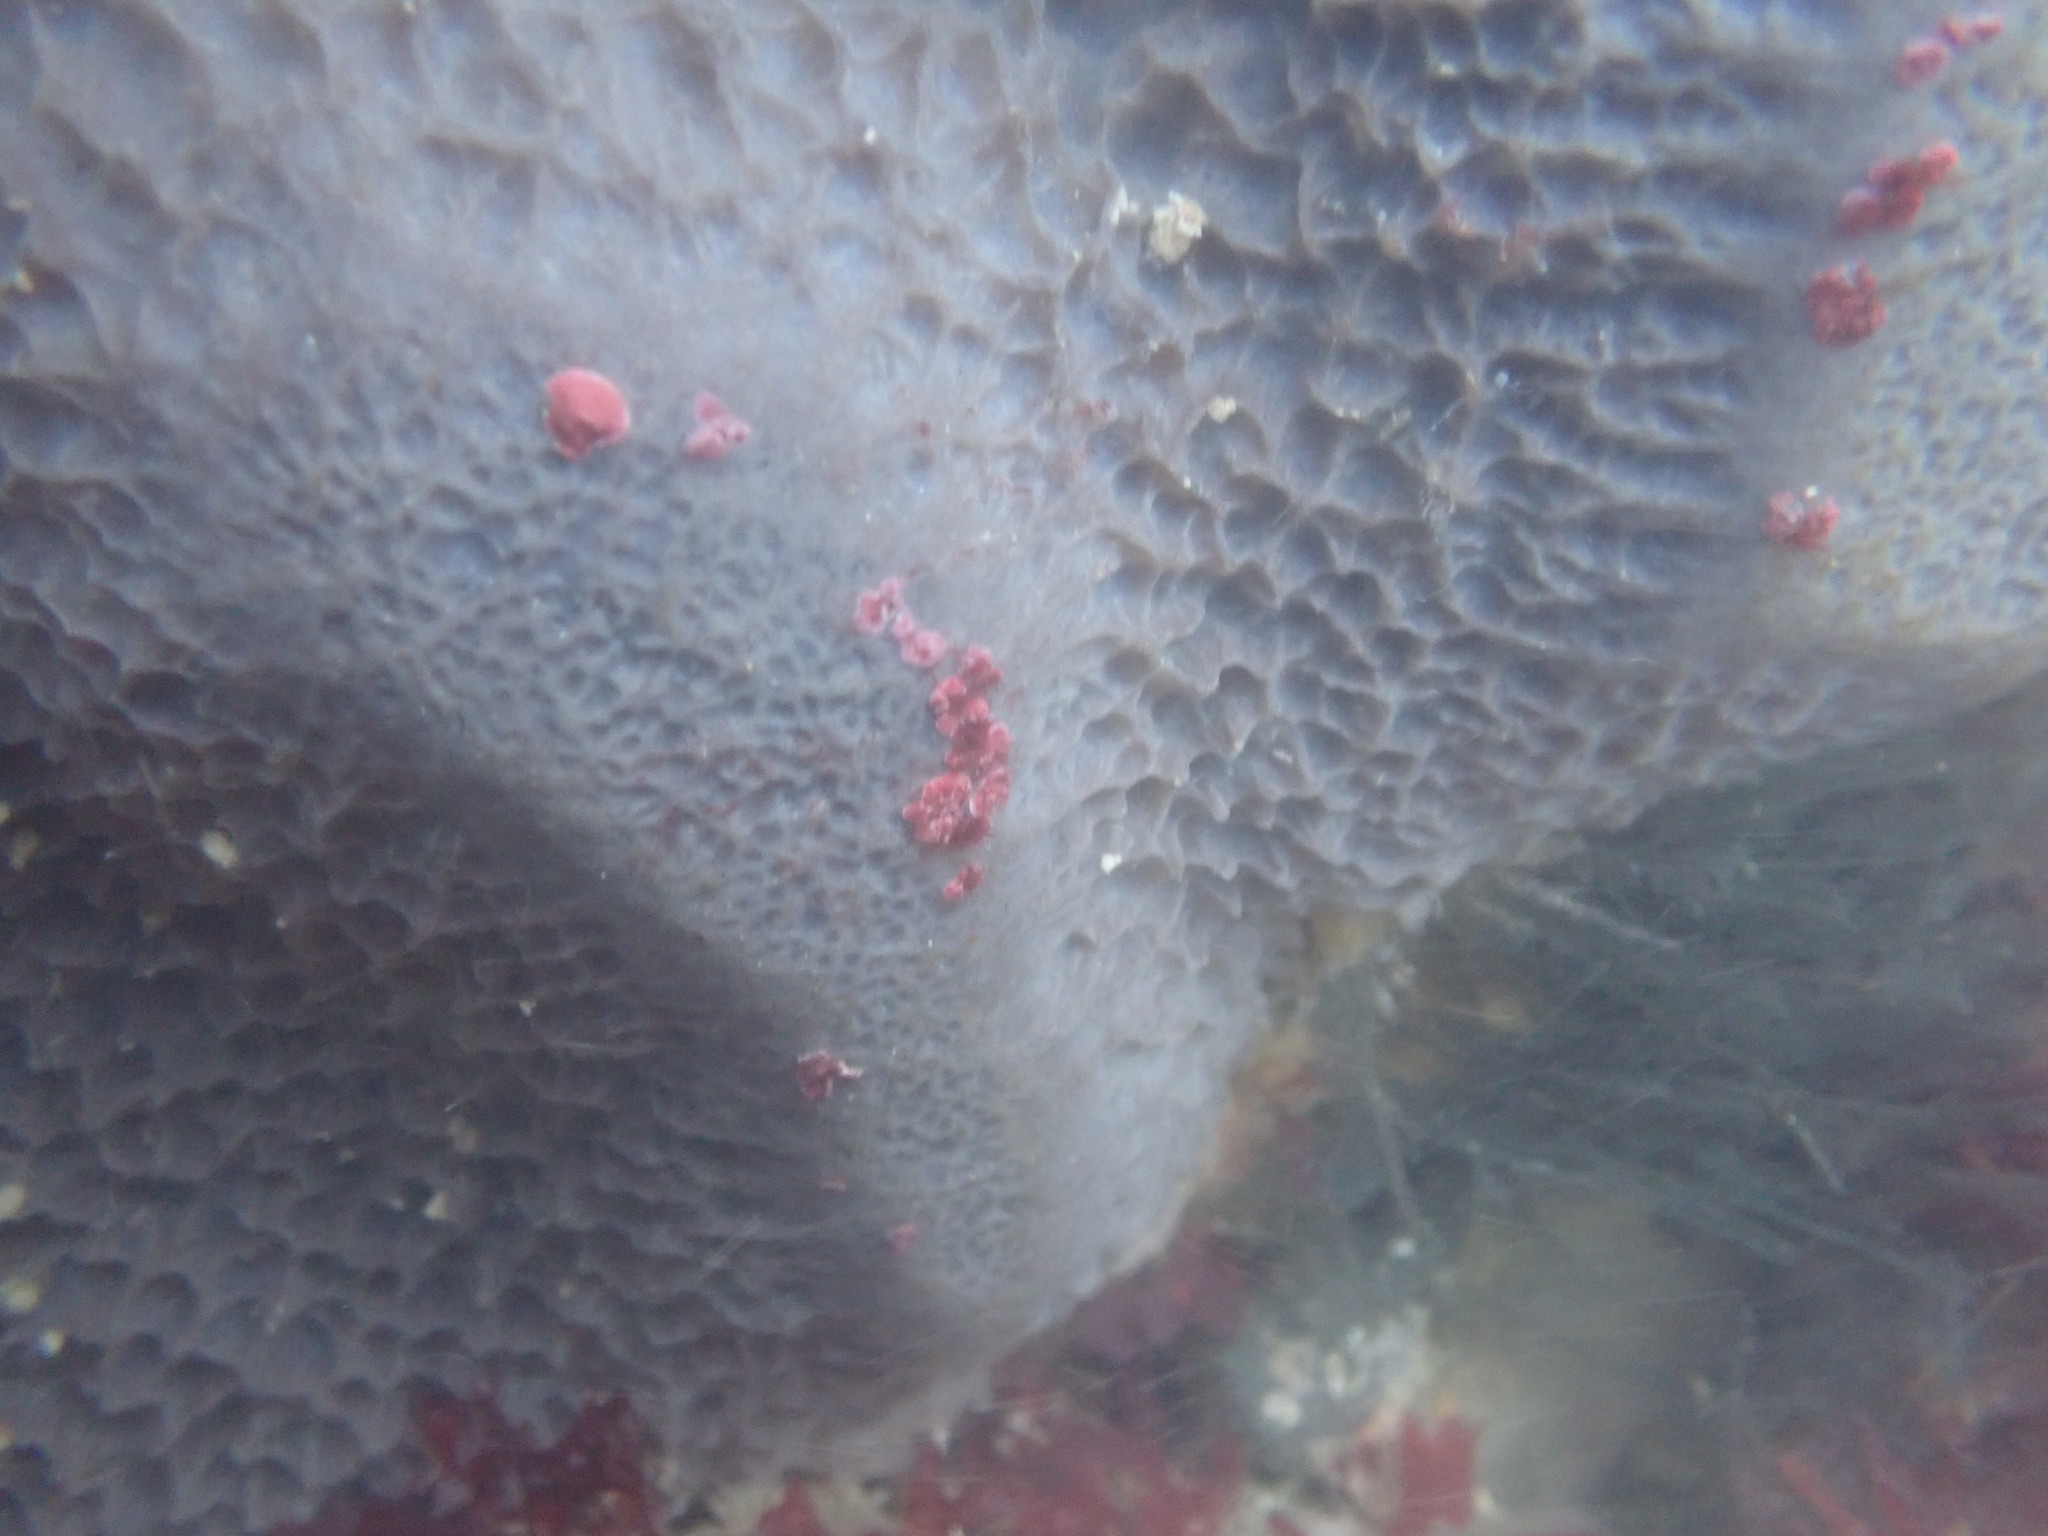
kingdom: Animalia
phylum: Porifera
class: Demospongiae
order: Tetractinellida
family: Ancorinidae
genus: Stelletta
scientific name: Stelletta sandalinum
